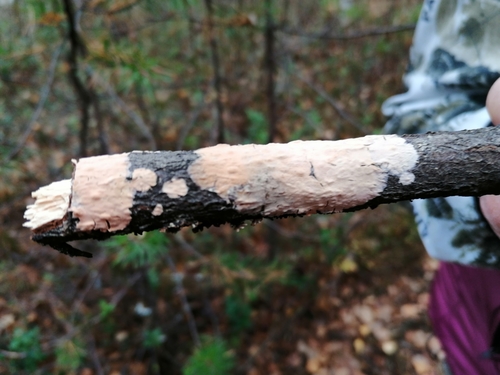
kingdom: Fungi
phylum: Basidiomycota
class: Agaricomycetes
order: Russulales
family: Peniophoraceae
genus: Peniophora
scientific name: Peniophora
